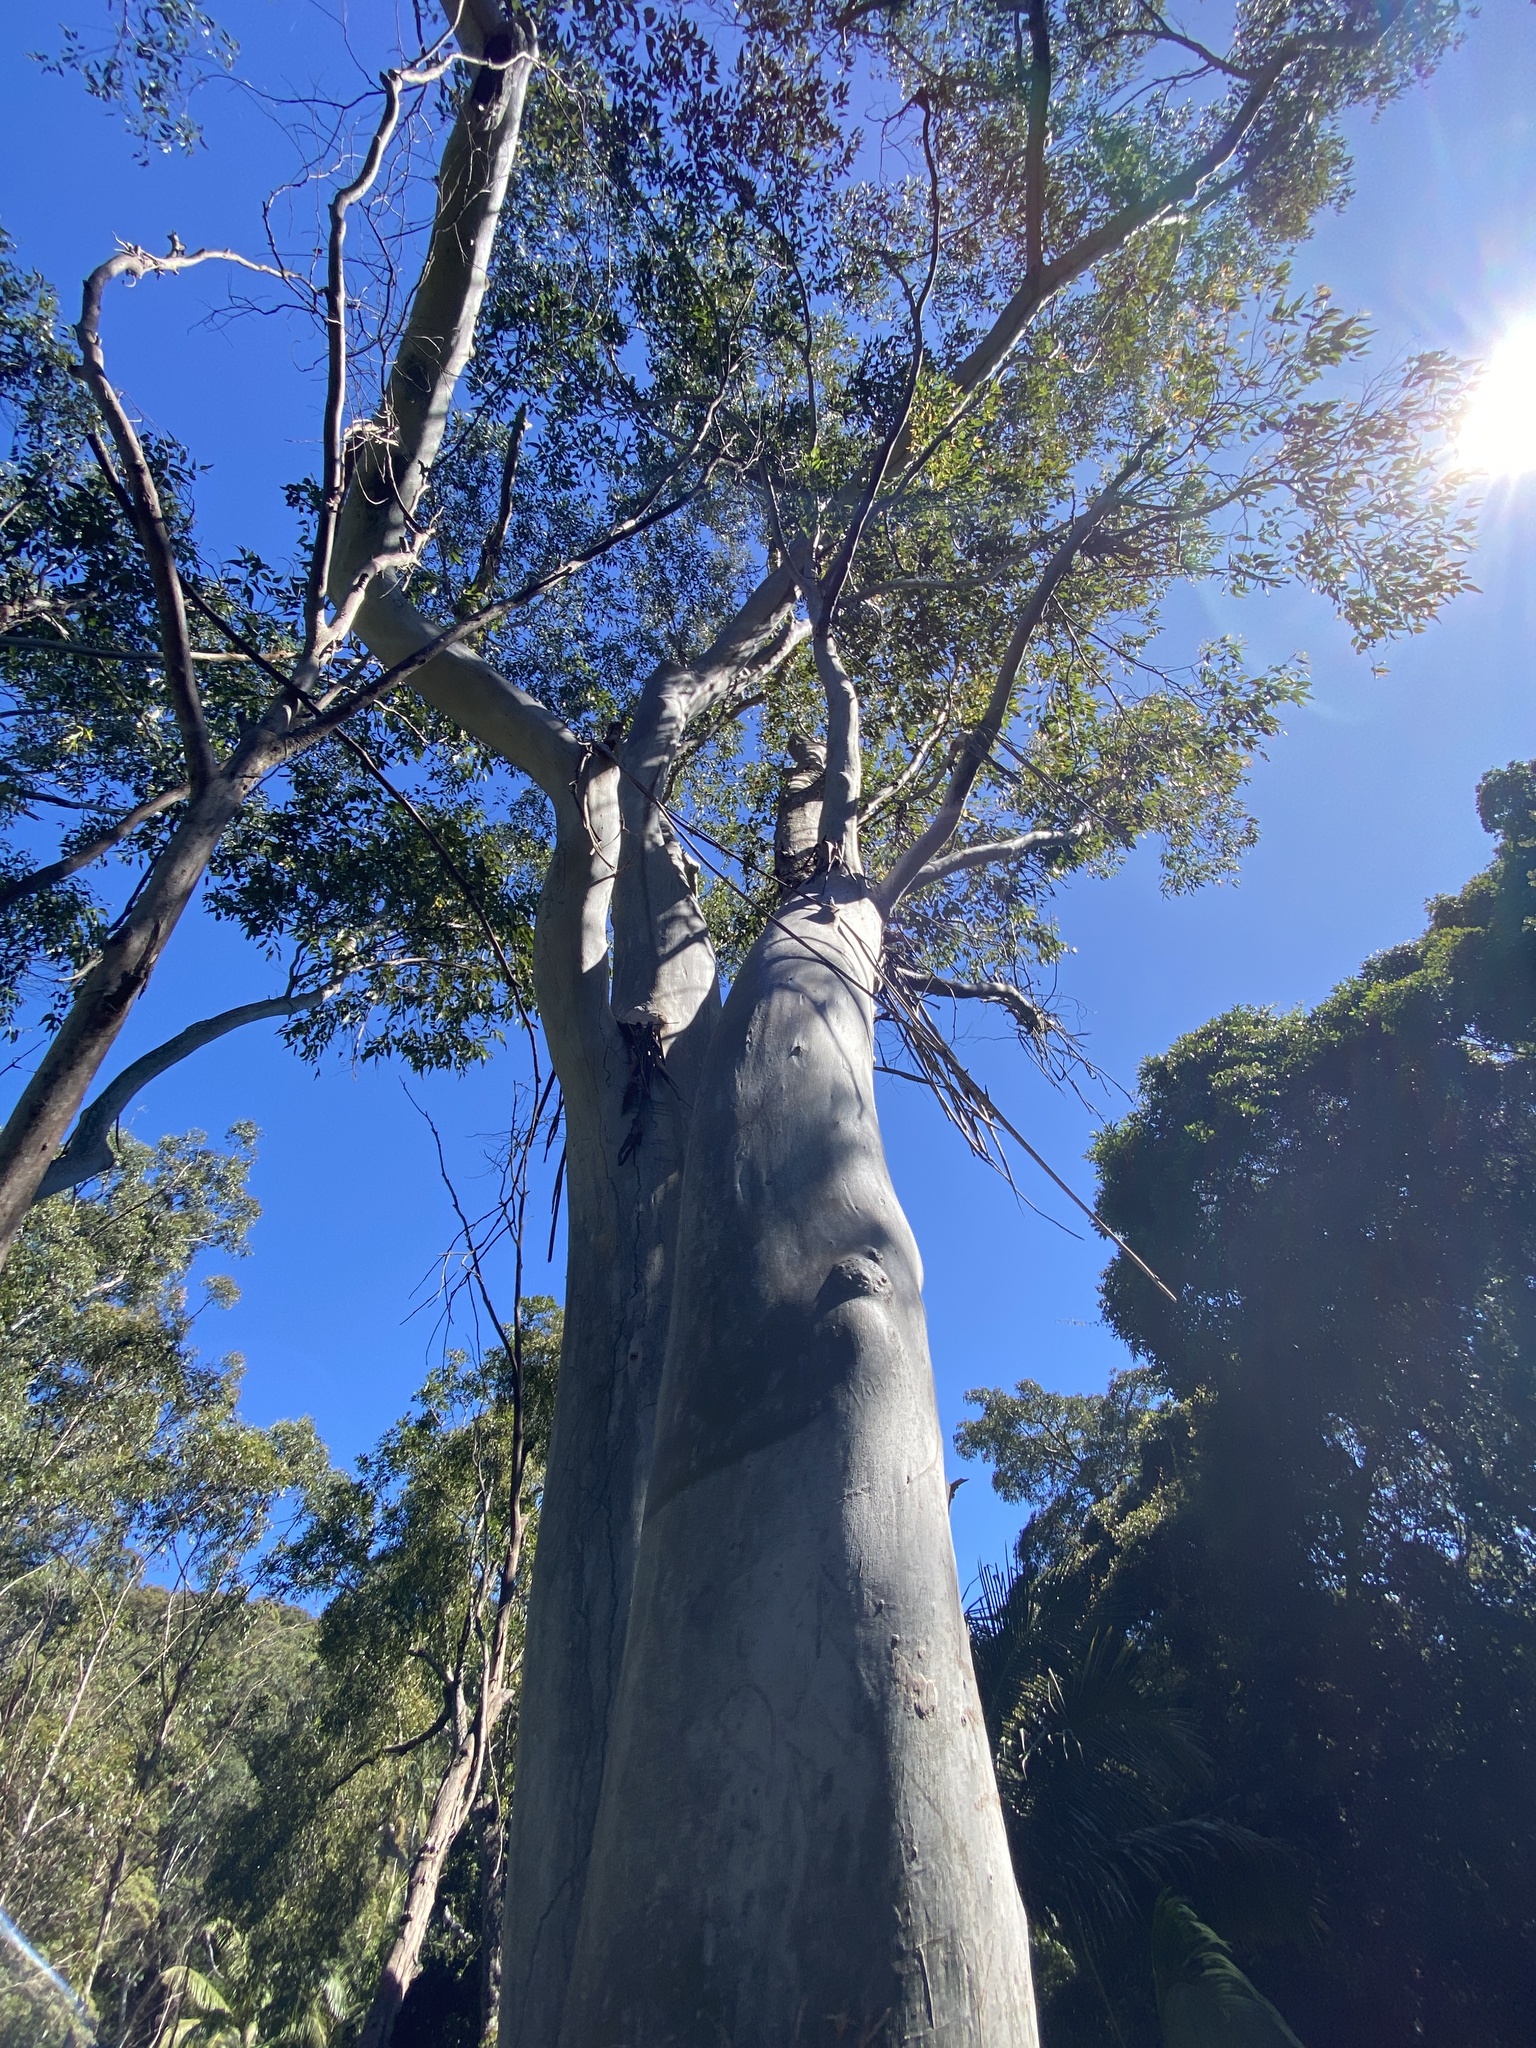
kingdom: Plantae
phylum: Tracheophyta
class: Magnoliopsida
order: Myrtales
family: Myrtaceae
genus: Eucalyptus
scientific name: Eucalyptus grandis
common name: Grand eucalyptus
